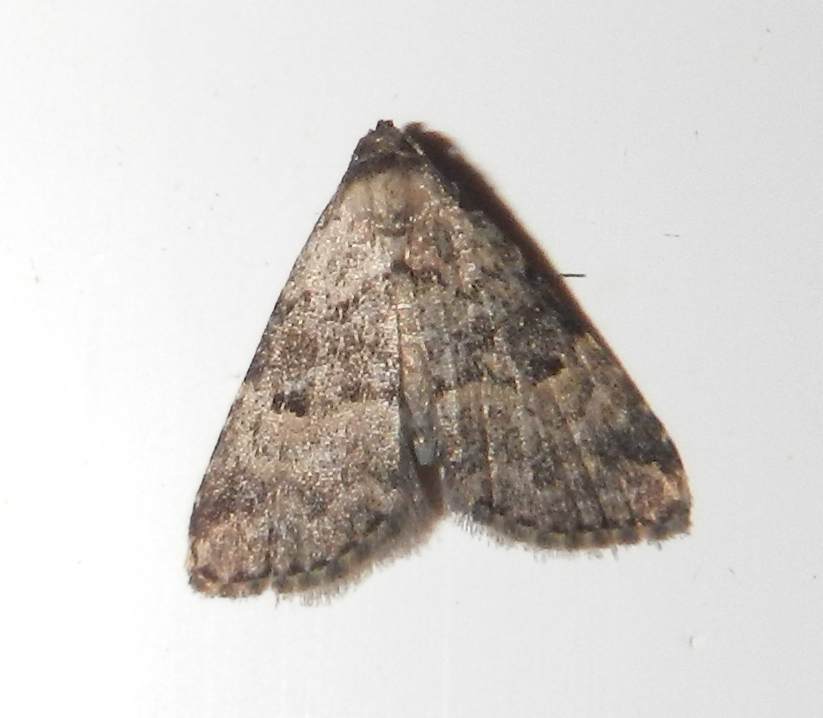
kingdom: Animalia
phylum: Arthropoda
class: Insecta
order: Lepidoptera
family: Erebidae
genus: Dyspyralis
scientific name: Dyspyralis illocata
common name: Visitation moth
